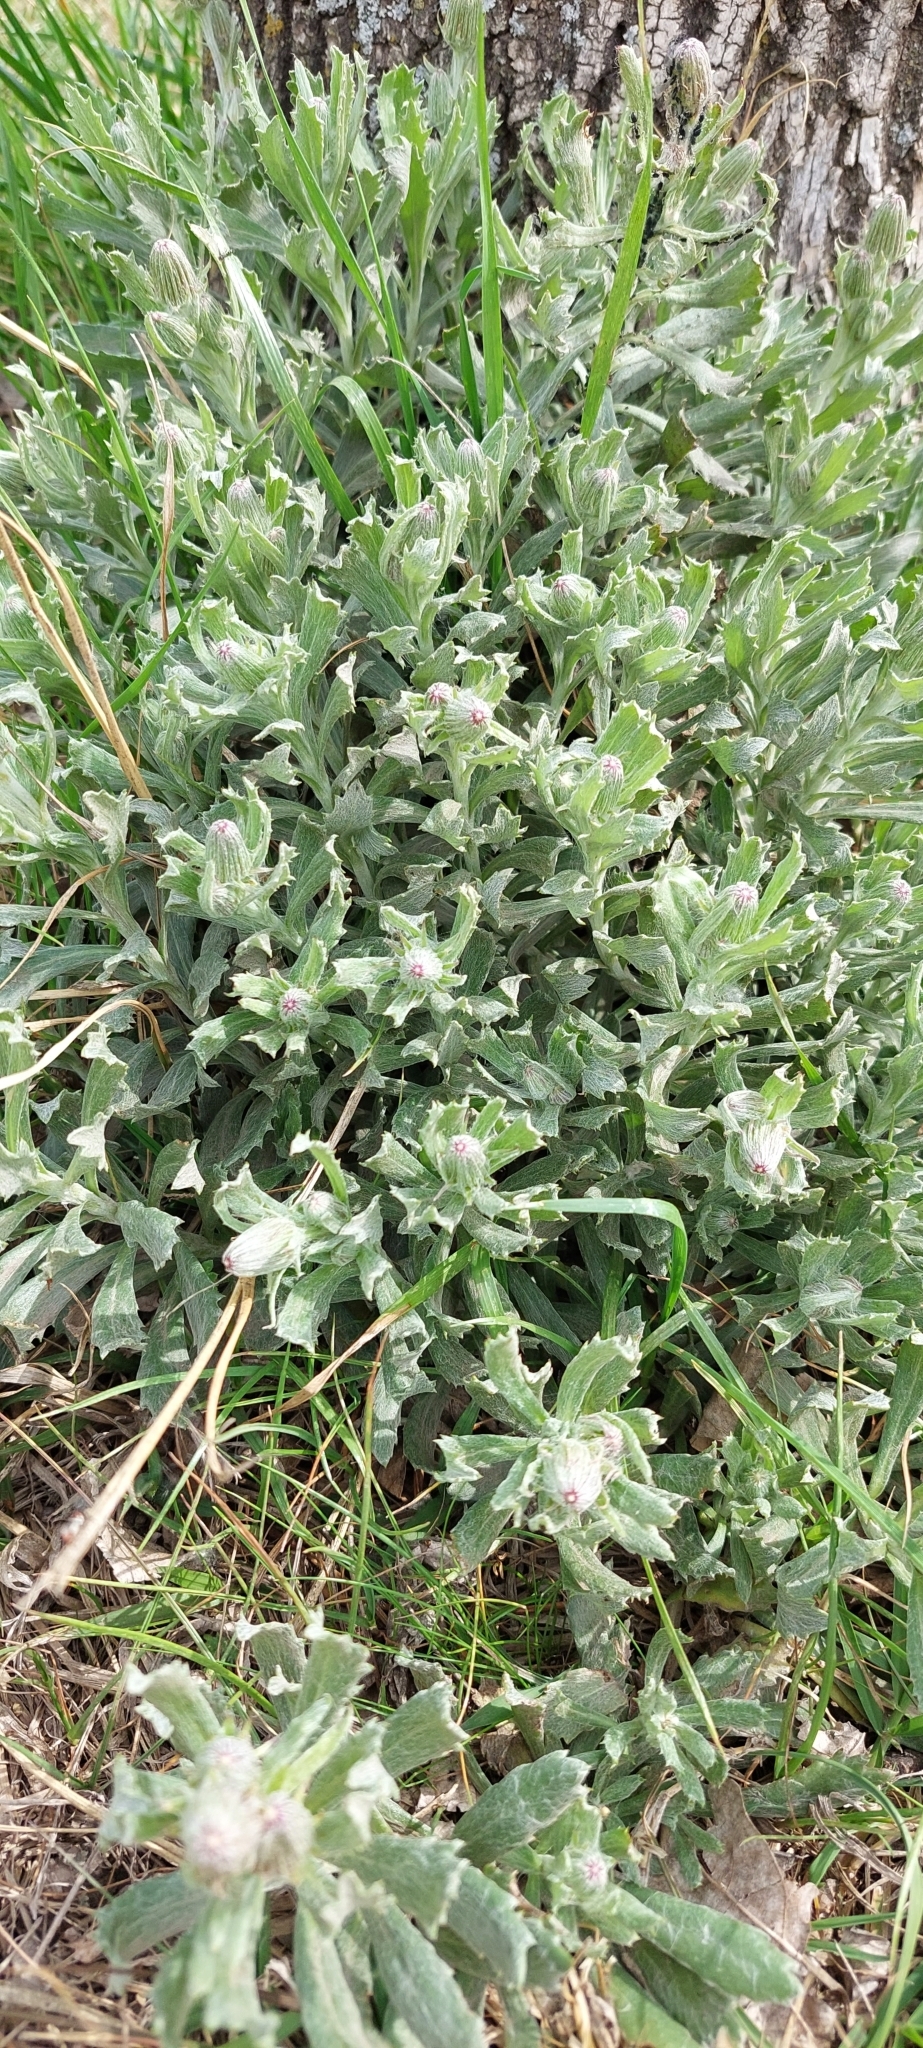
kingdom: Plantae
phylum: Tracheophyta
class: Magnoliopsida
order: Asterales
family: Asteraceae
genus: Senecio
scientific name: Senecio ceratophylloides
